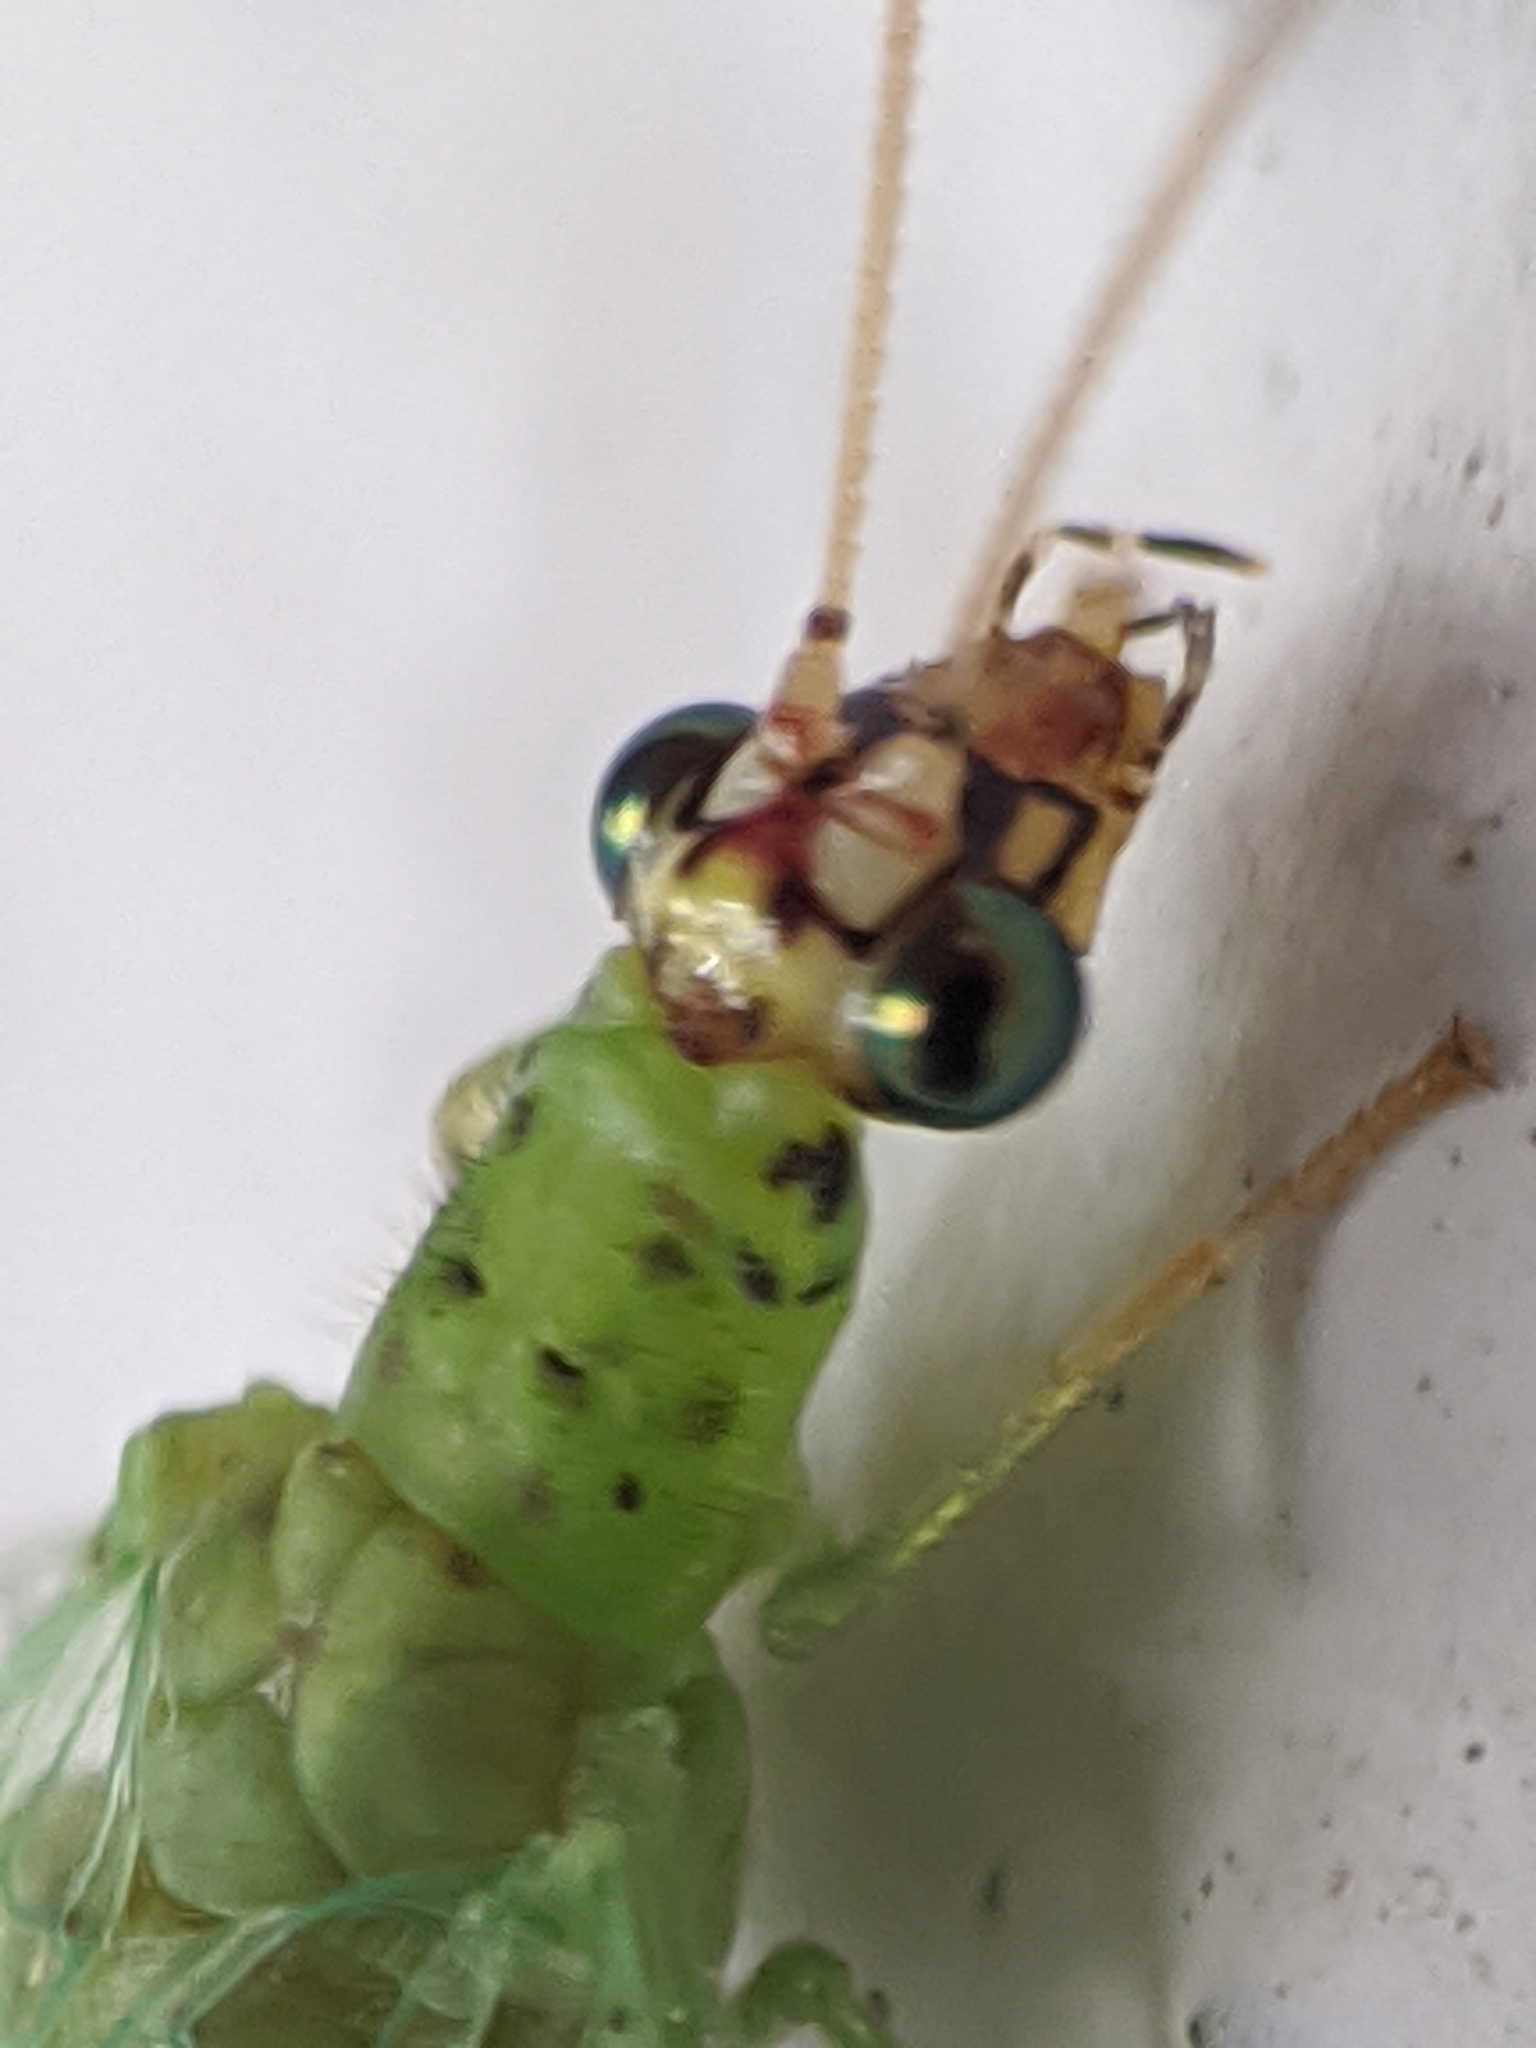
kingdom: Animalia
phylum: Arthropoda
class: Insecta
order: Neuroptera
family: Chrysopidae
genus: Chrysopa
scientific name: Chrysopa oculata
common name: Golden-eyed lacewing
